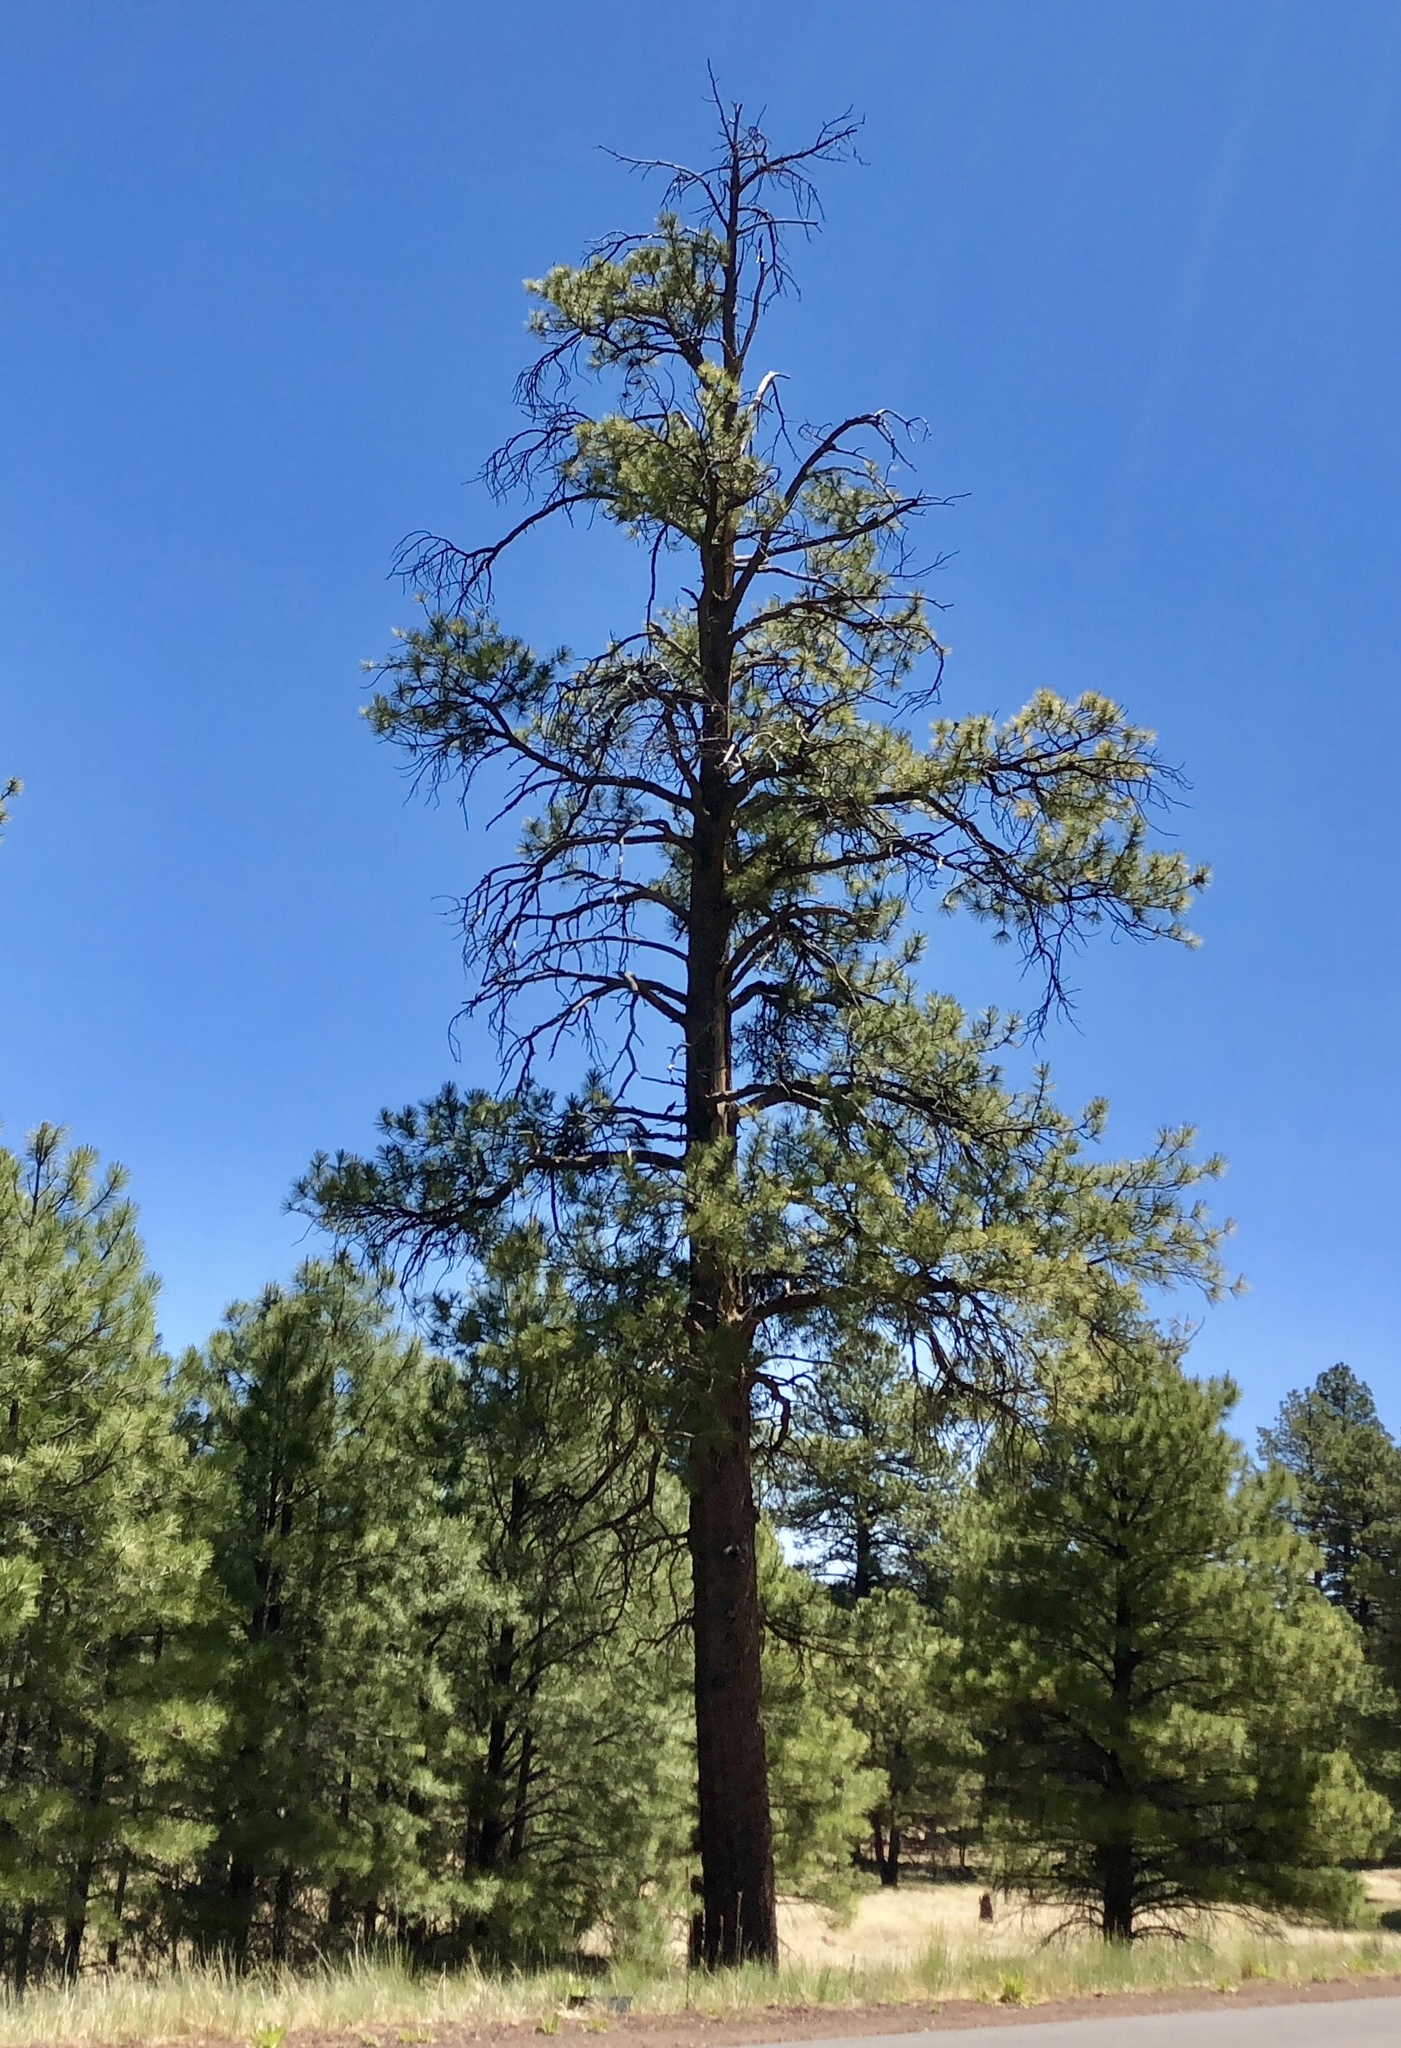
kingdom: Plantae
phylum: Tracheophyta
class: Pinopsida
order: Pinales
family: Pinaceae
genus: Pinus
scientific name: Pinus ponderosa
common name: Western yellow-pine
